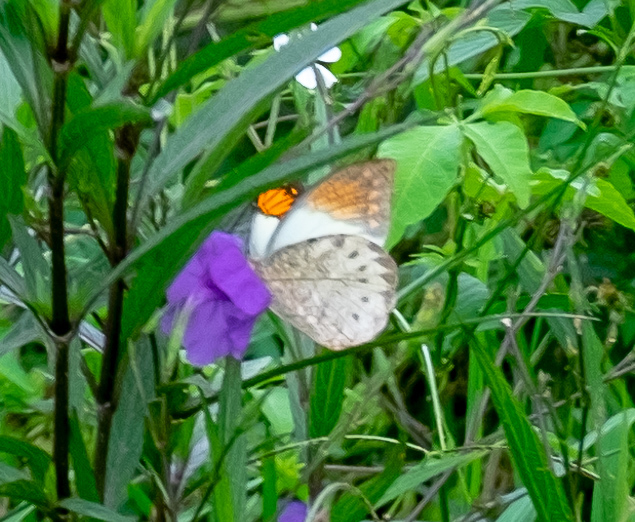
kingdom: Animalia
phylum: Arthropoda
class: Insecta
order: Lepidoptera
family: Pieridae
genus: Hebomoia
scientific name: Hebomoia glaucippe
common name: Great orange tip
